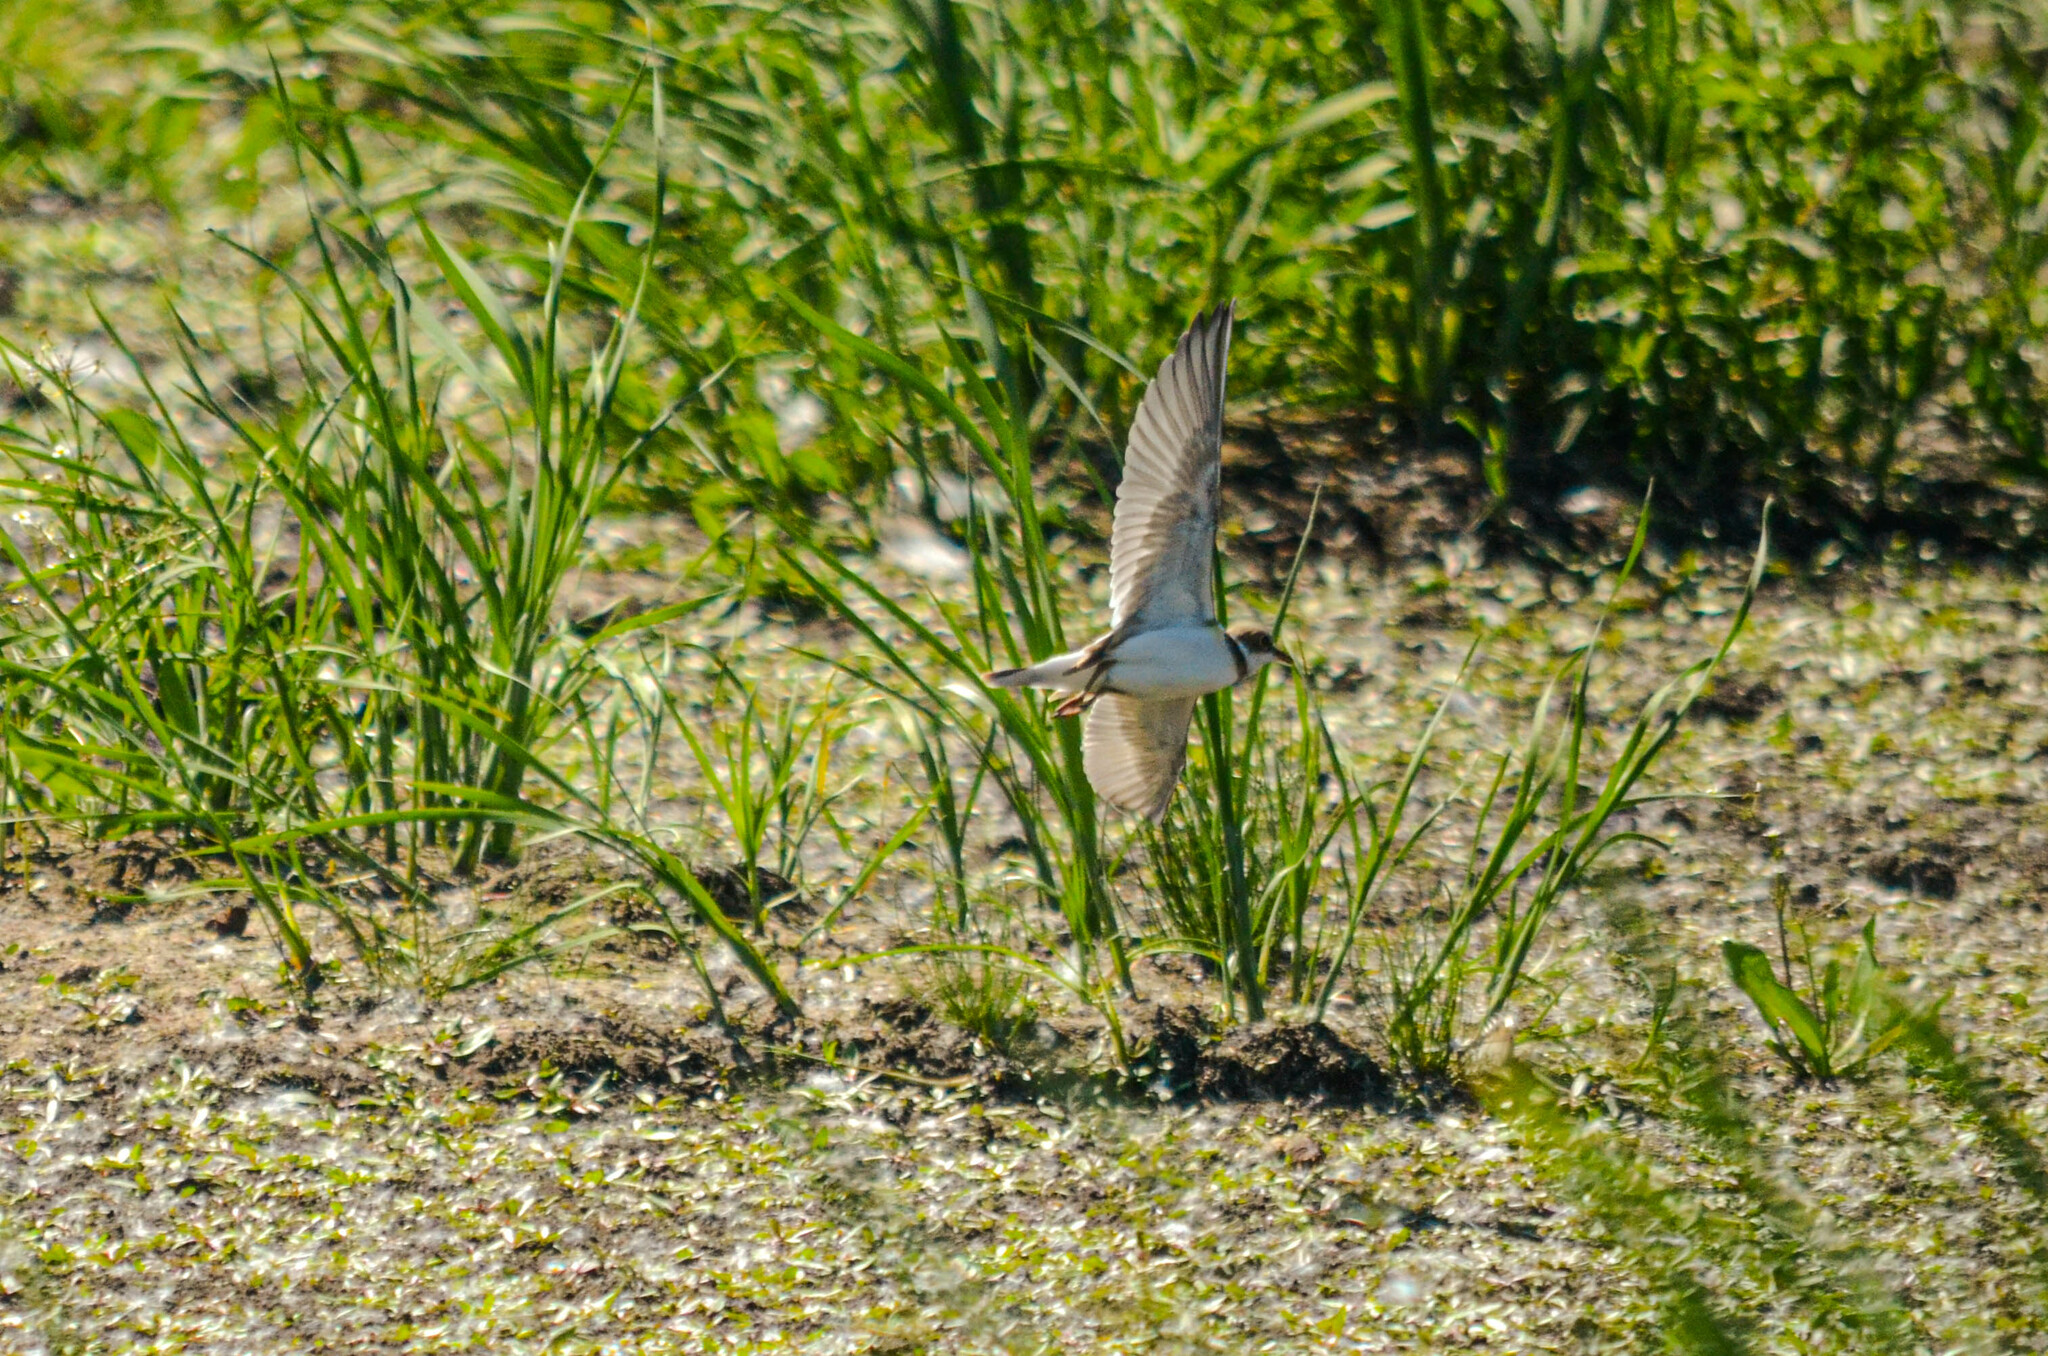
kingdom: Animalia
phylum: Chordata
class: Aves
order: Charadriiformes
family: Charadriidae
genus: Charadrius
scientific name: Charadrius dubius
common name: Little ringed plover
